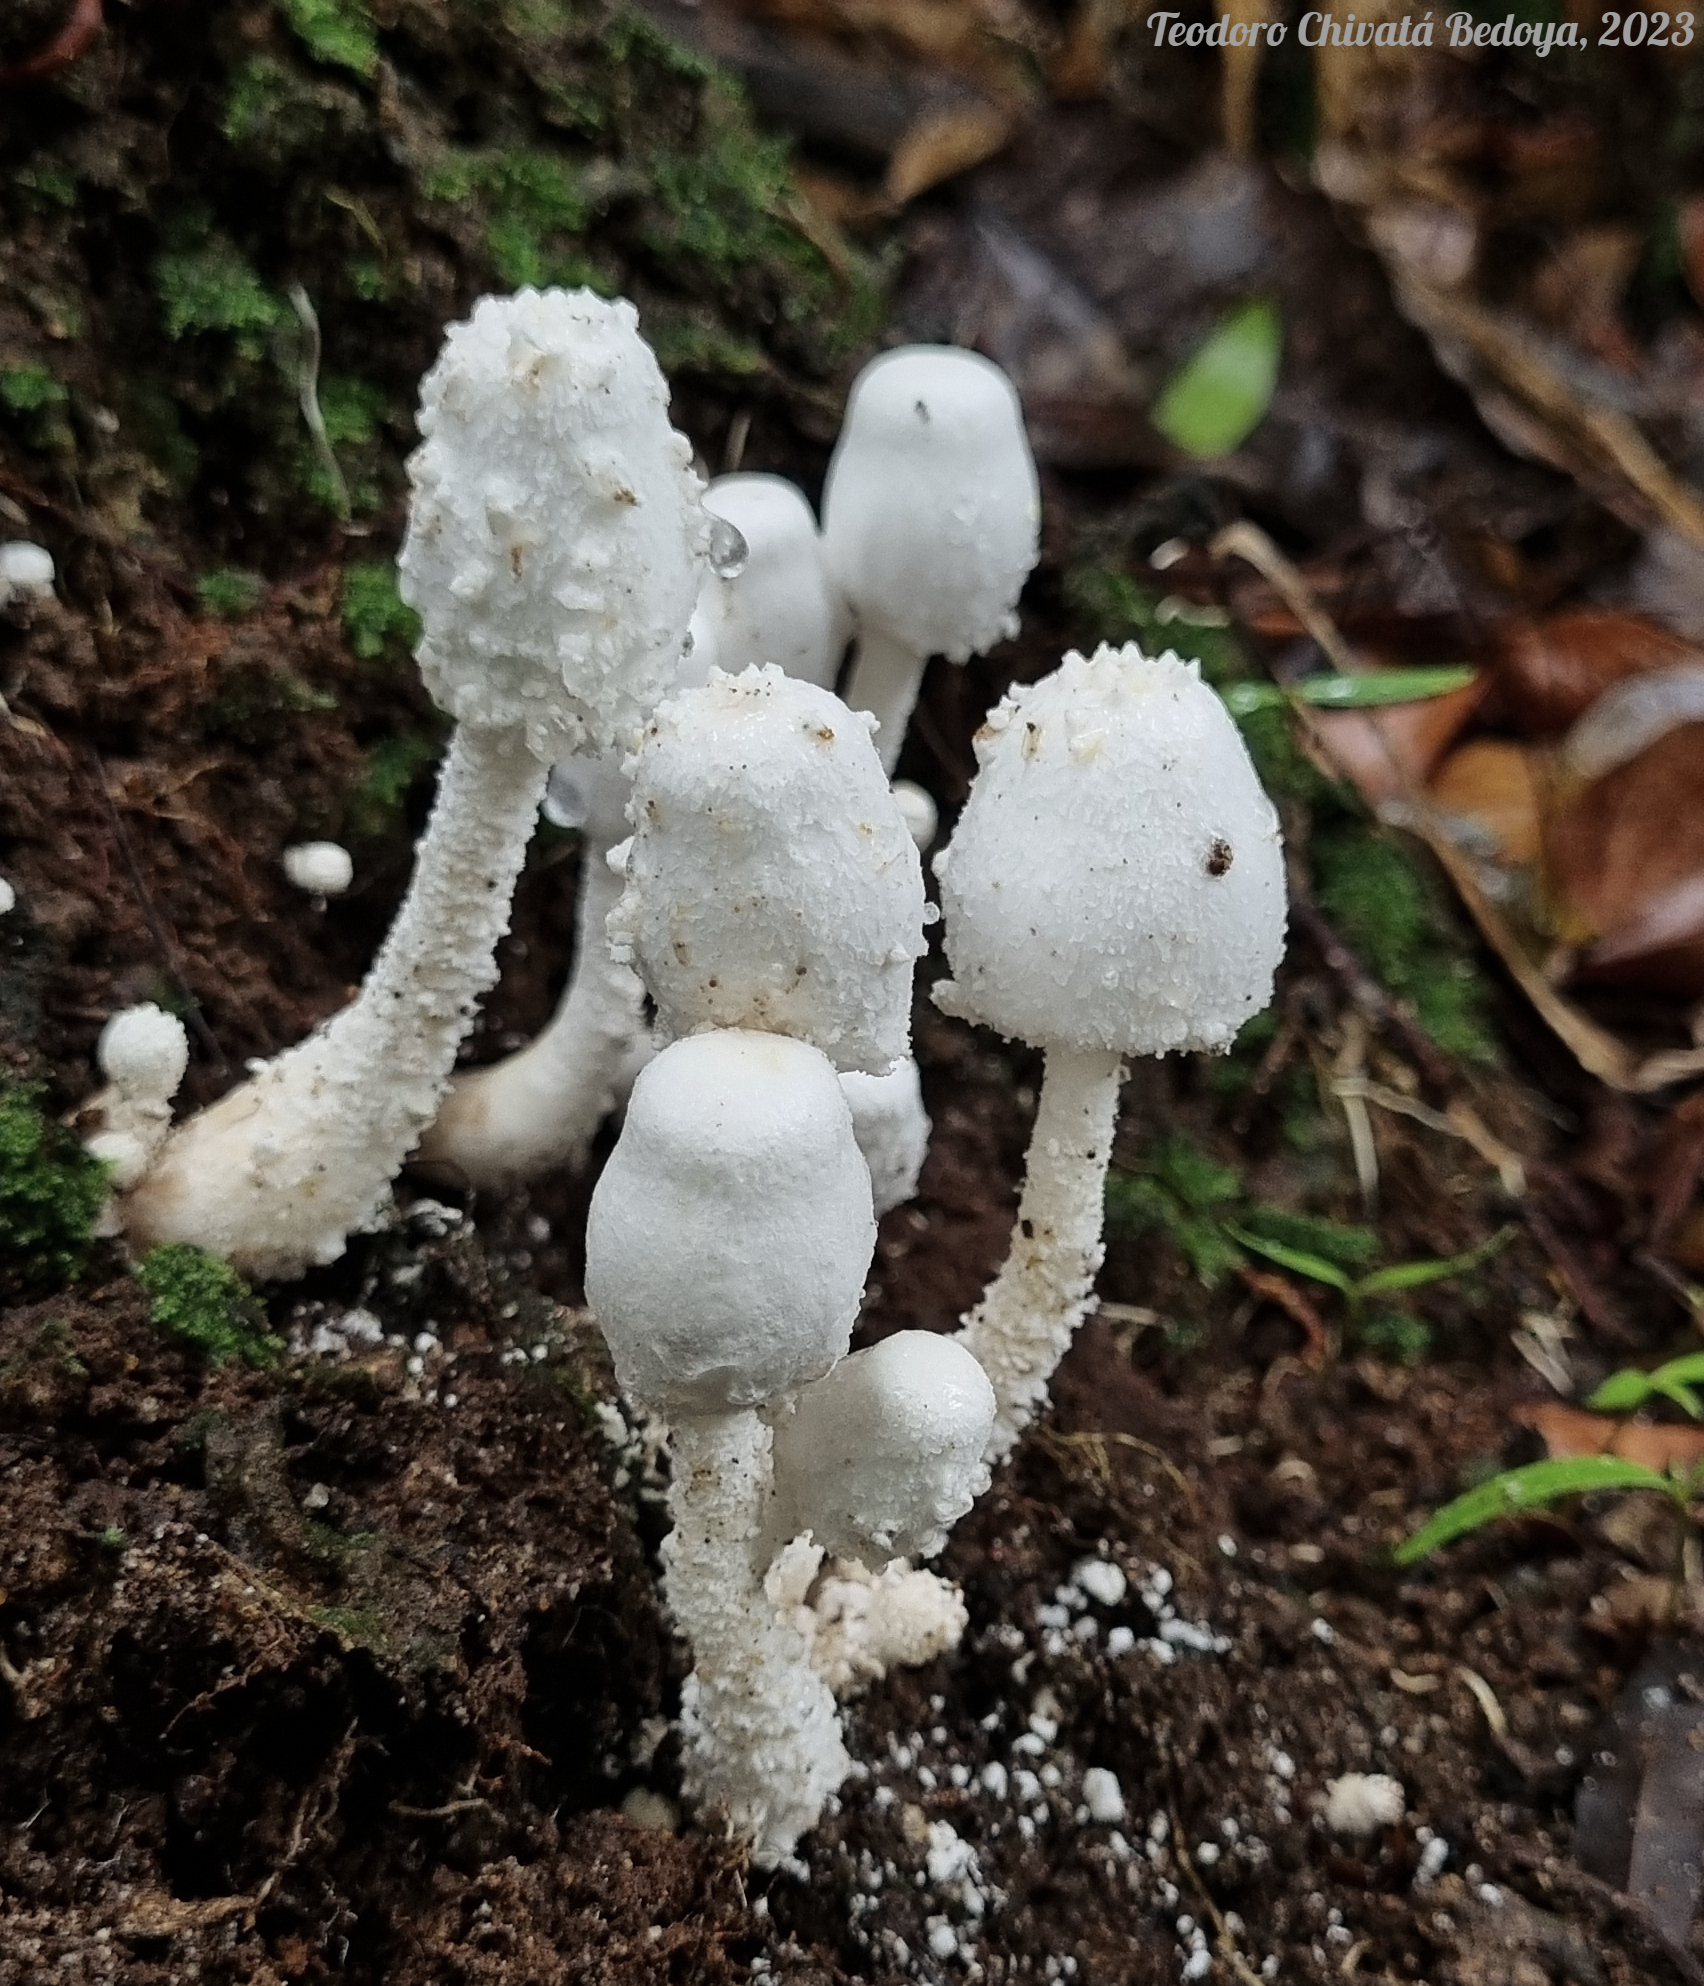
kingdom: Fungi
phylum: Basidiomycota
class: Agaricomycetes
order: Agaricales
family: Agaricaceae
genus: Leucocoprinus
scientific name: Leucocoprinus cretaceus
